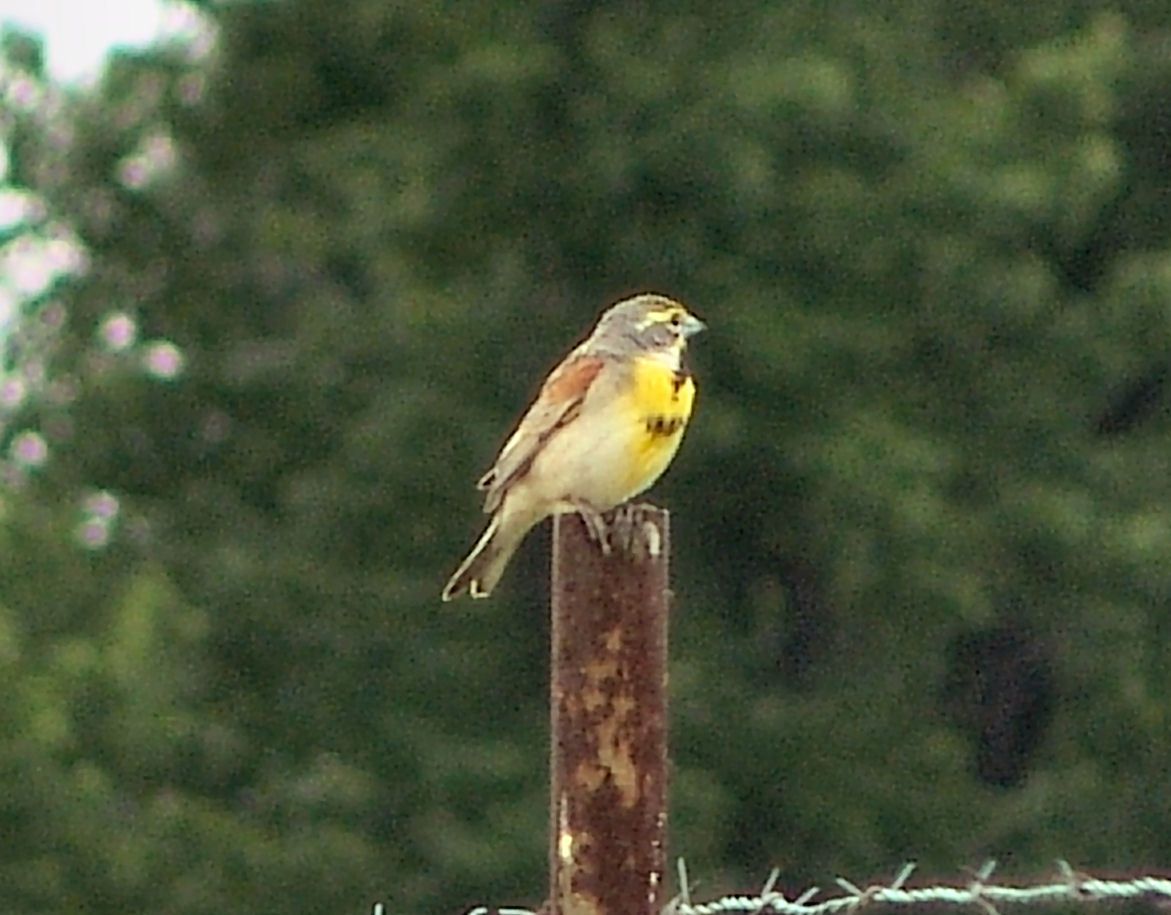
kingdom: Animalia
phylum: Chordata
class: Aves
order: Passeriformes
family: Cardinalidae
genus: Spiza
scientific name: Spiza americana
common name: Dickcissel
